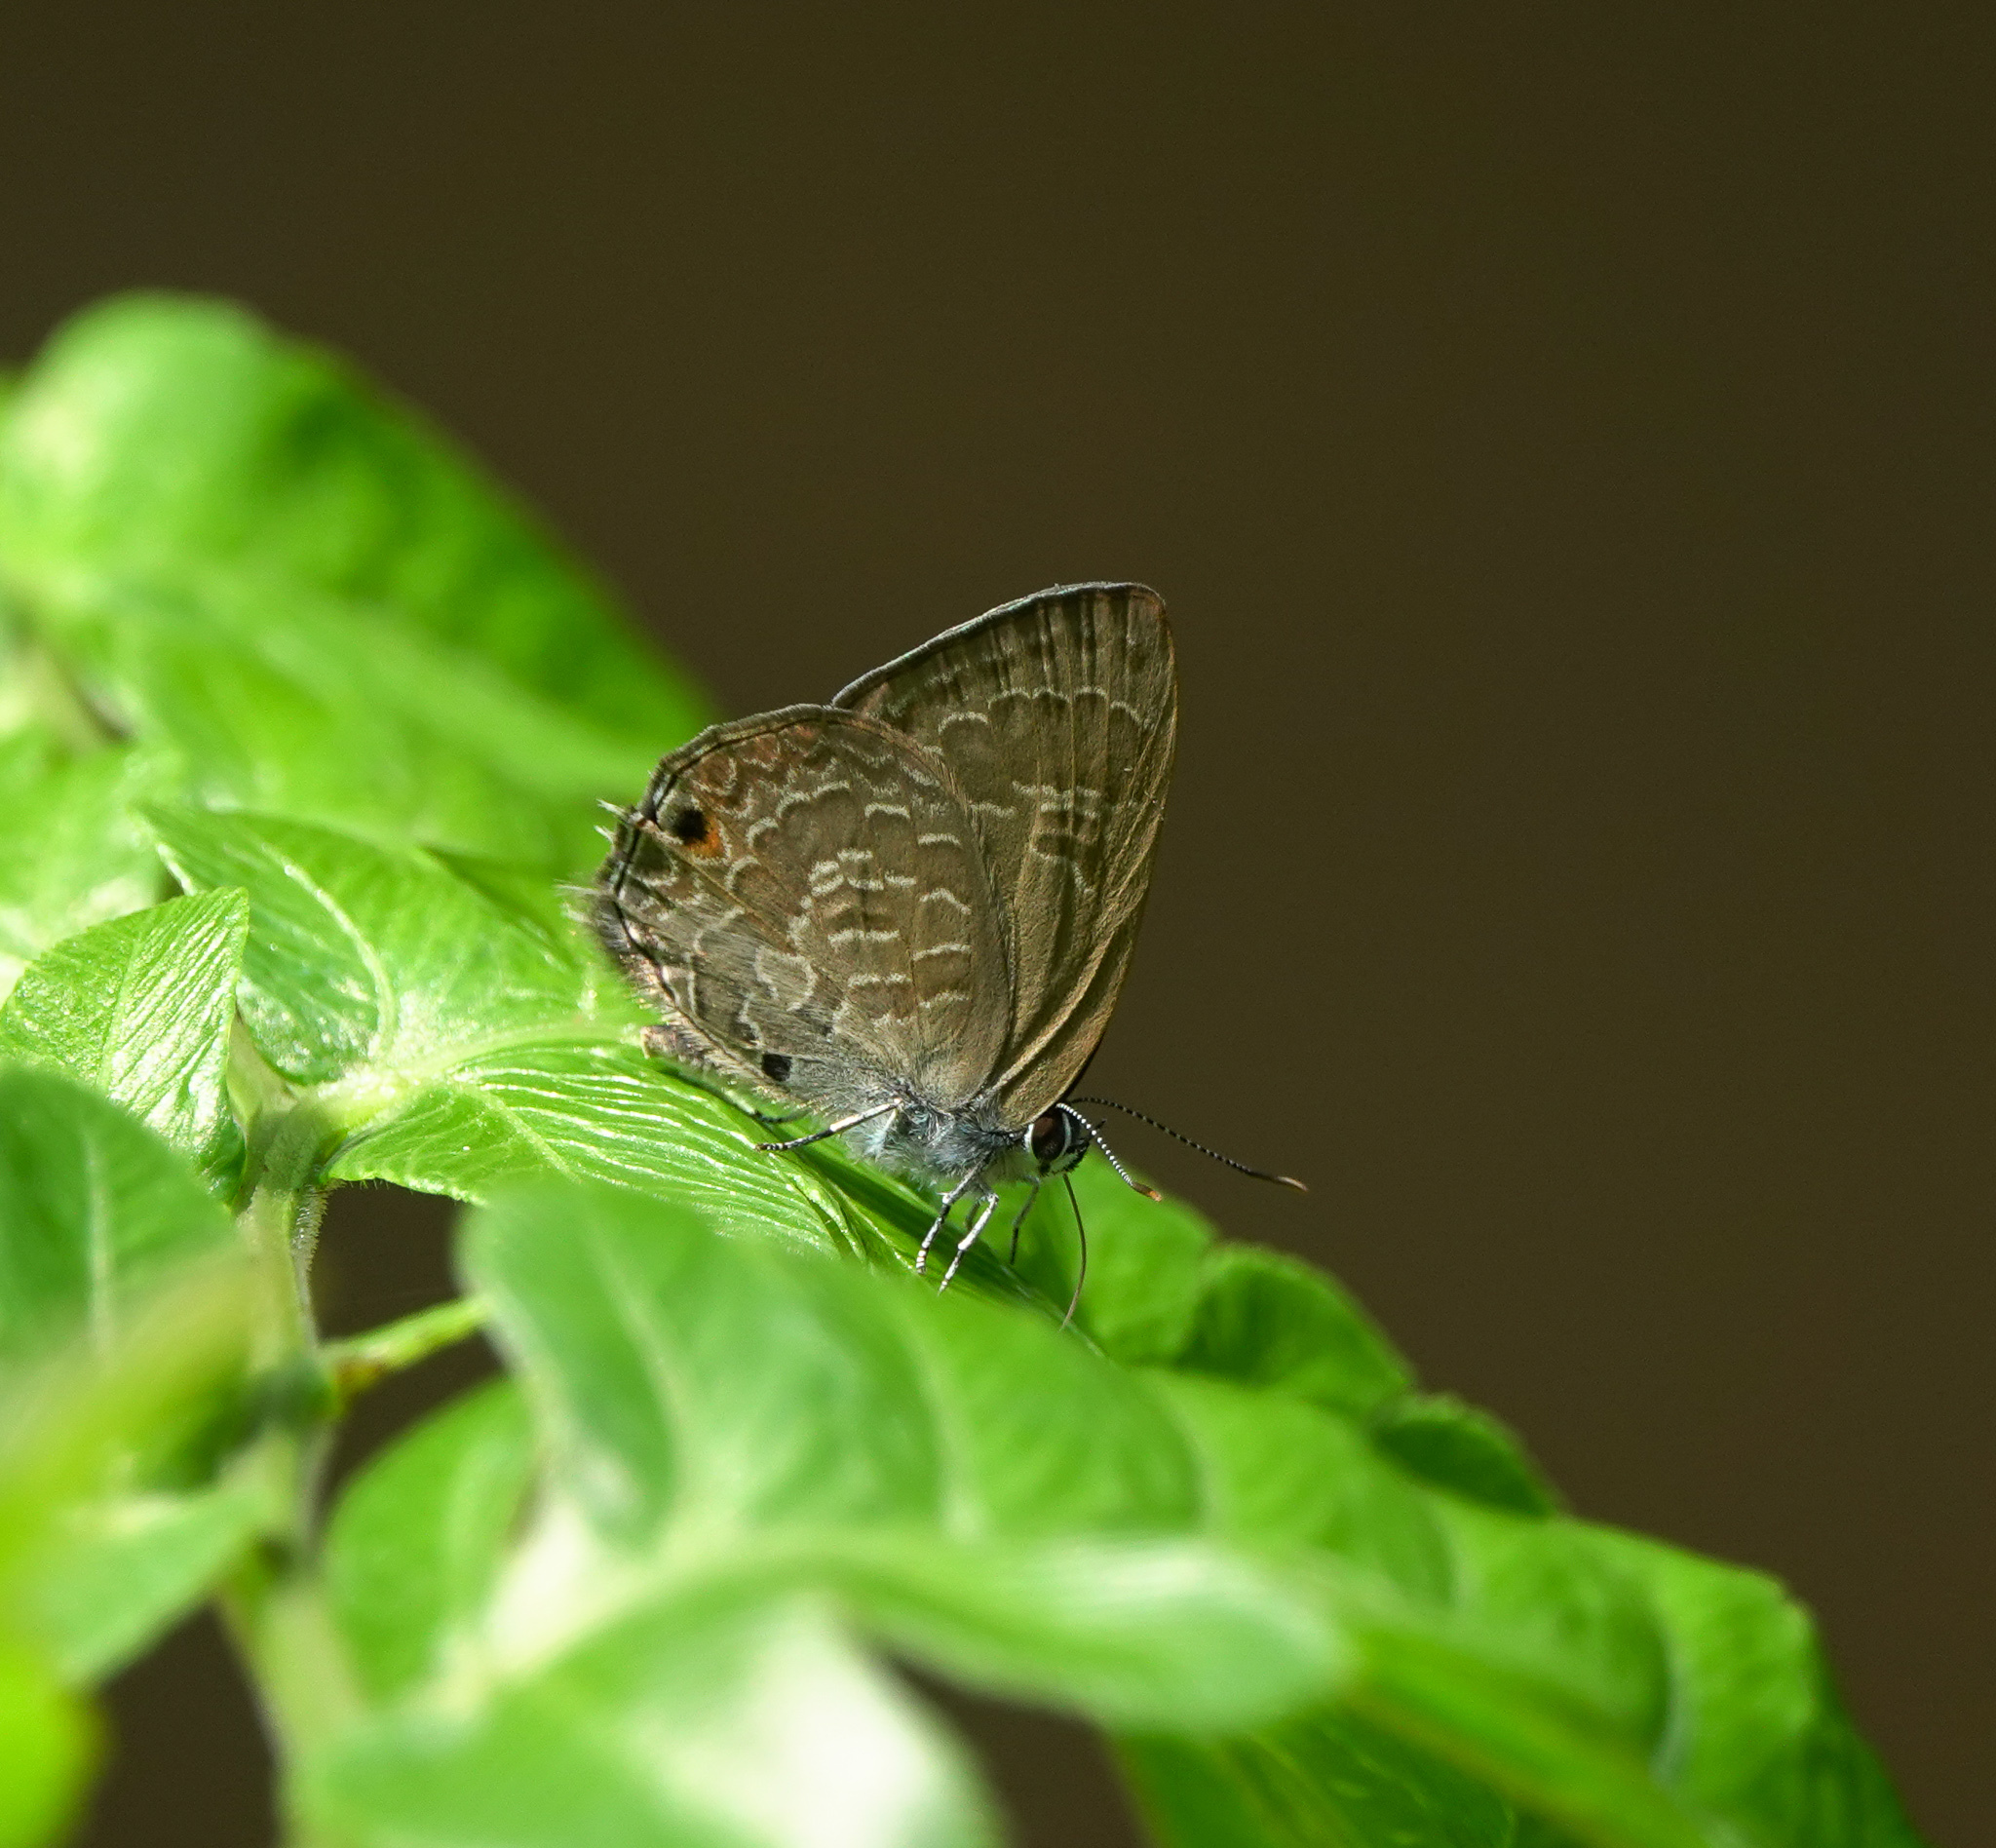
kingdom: Animalia
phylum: Arthropoda
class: Insecta
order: Lepidoptera
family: Lycaenidae
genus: Anthene
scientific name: Anthene emolus
